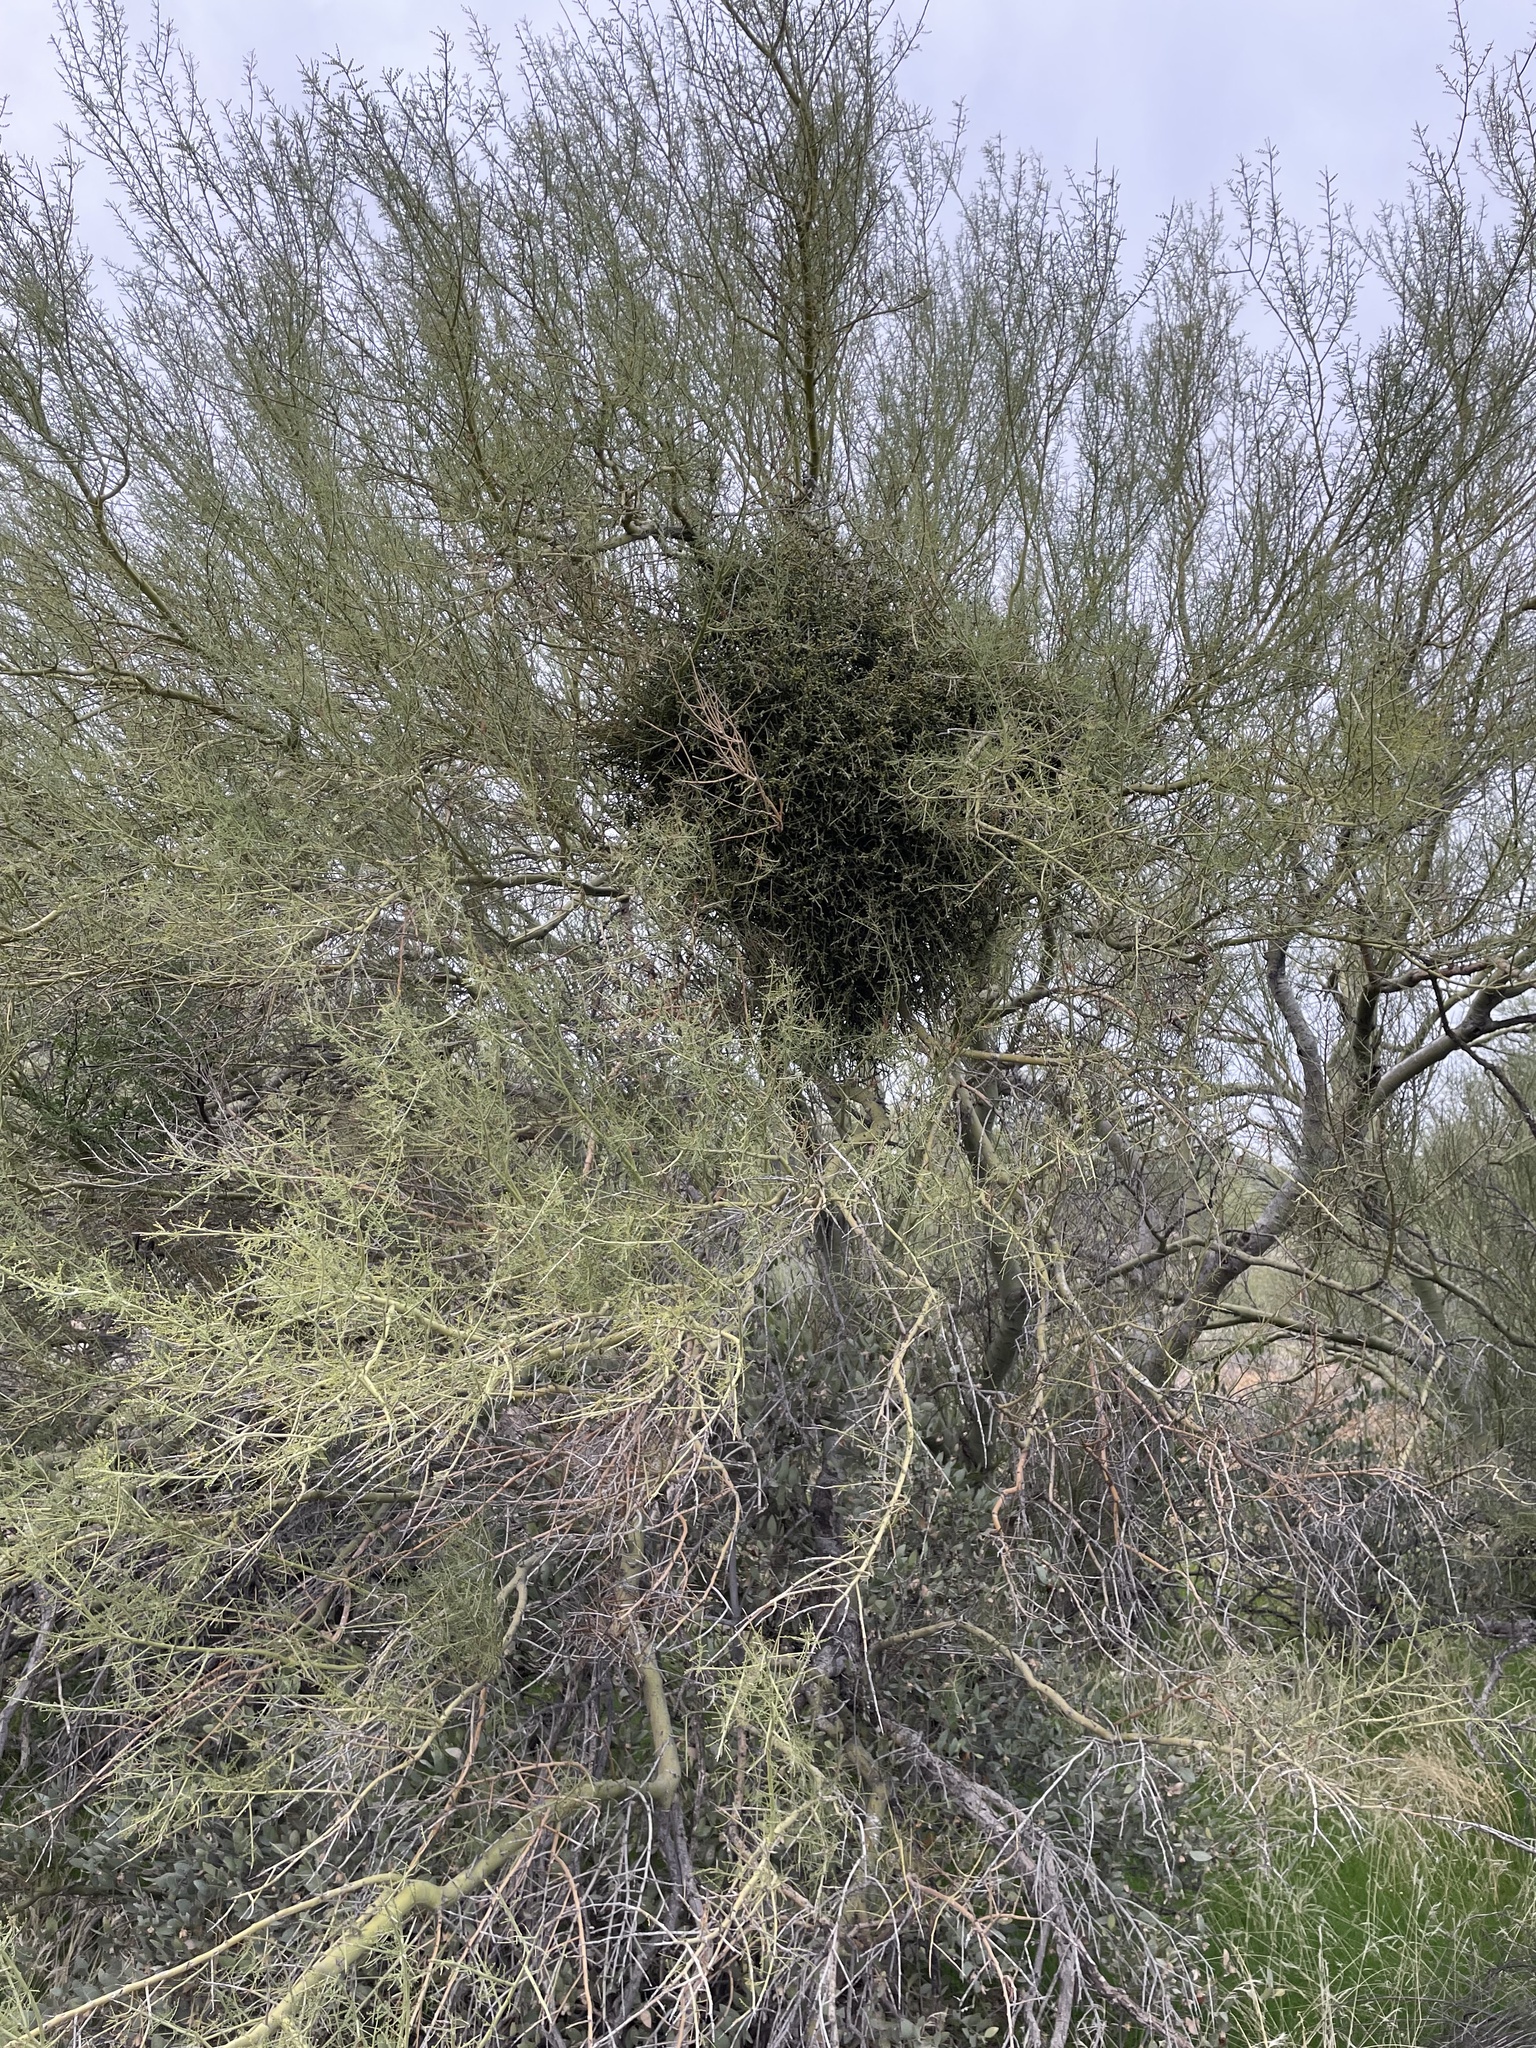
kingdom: Plantae
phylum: Tracheophyta
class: Magnoliopsida
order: Santalales
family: Viscaceae
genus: Phoradendron
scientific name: Phoradendron californicum
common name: Acacia mistletoe
